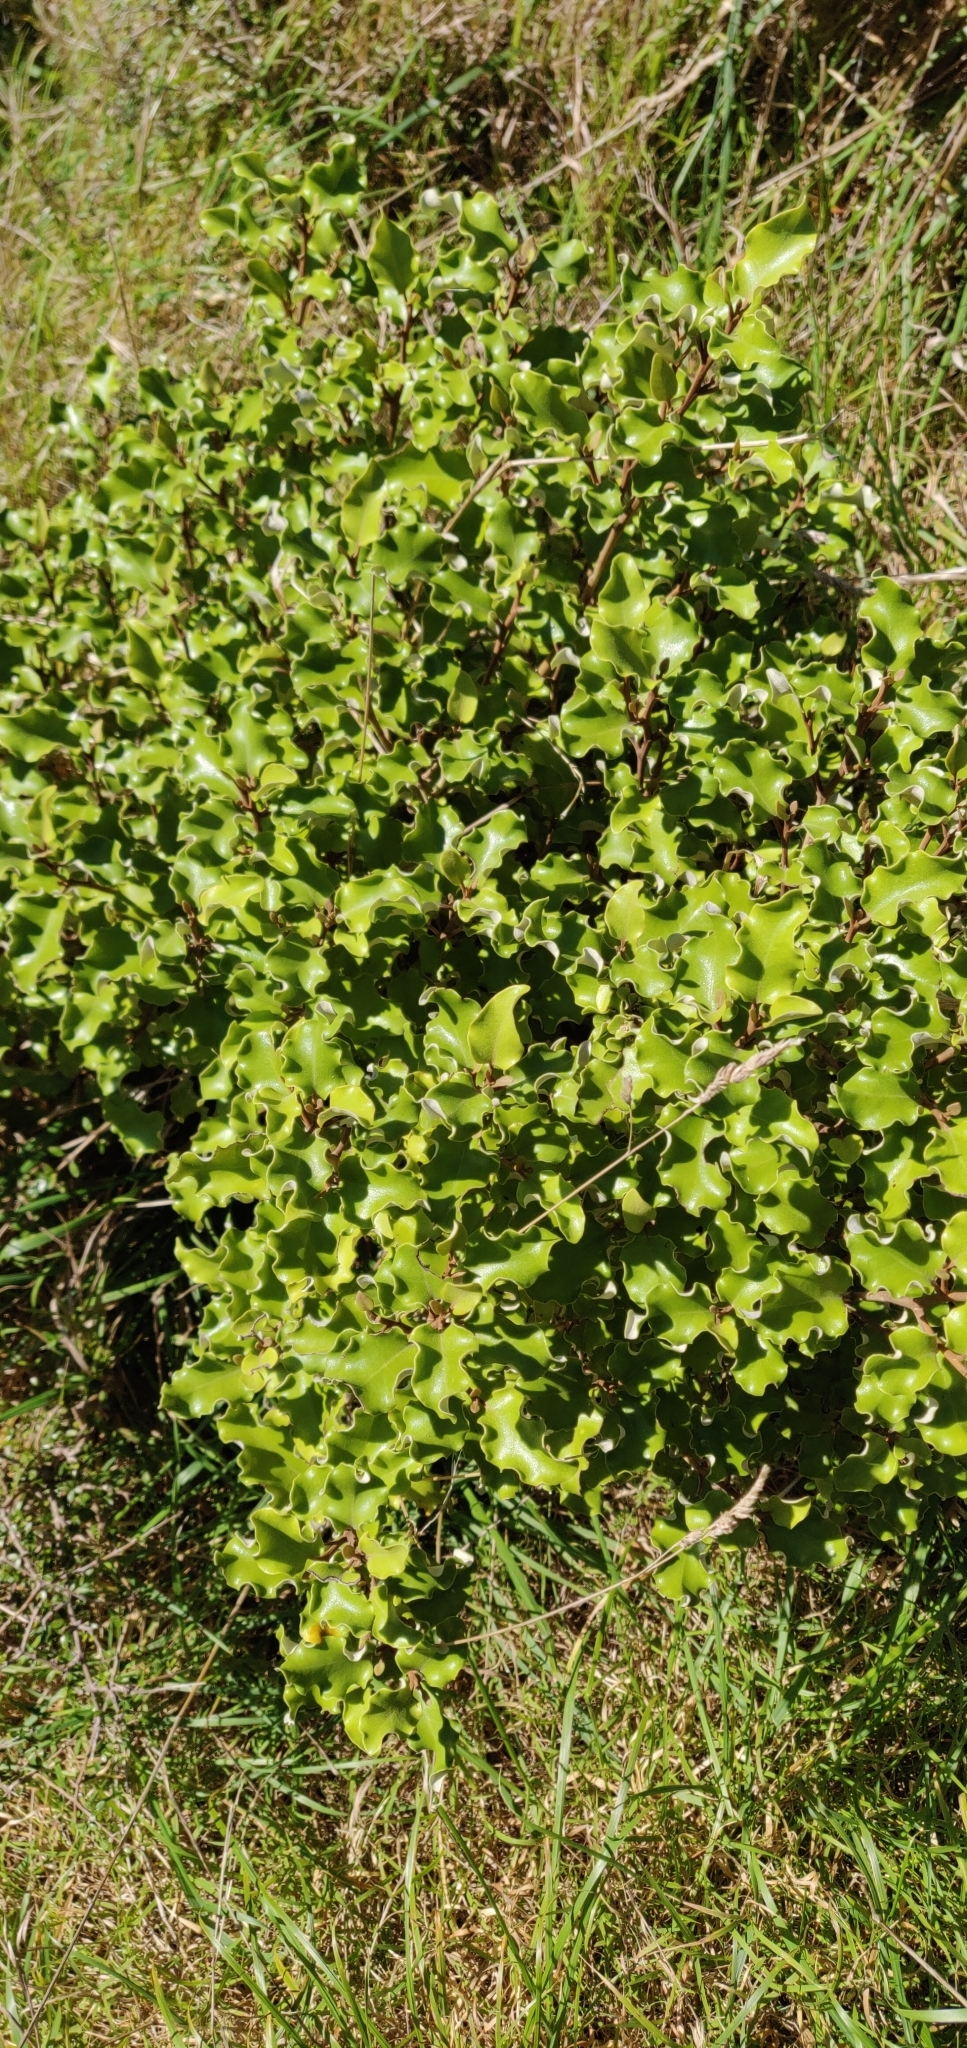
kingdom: Plantae
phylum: Tracheophyta
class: Magnoliopsida
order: Asterales
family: Asteraceae
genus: Olearia
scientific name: Olearia paniculata
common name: Akiraho
